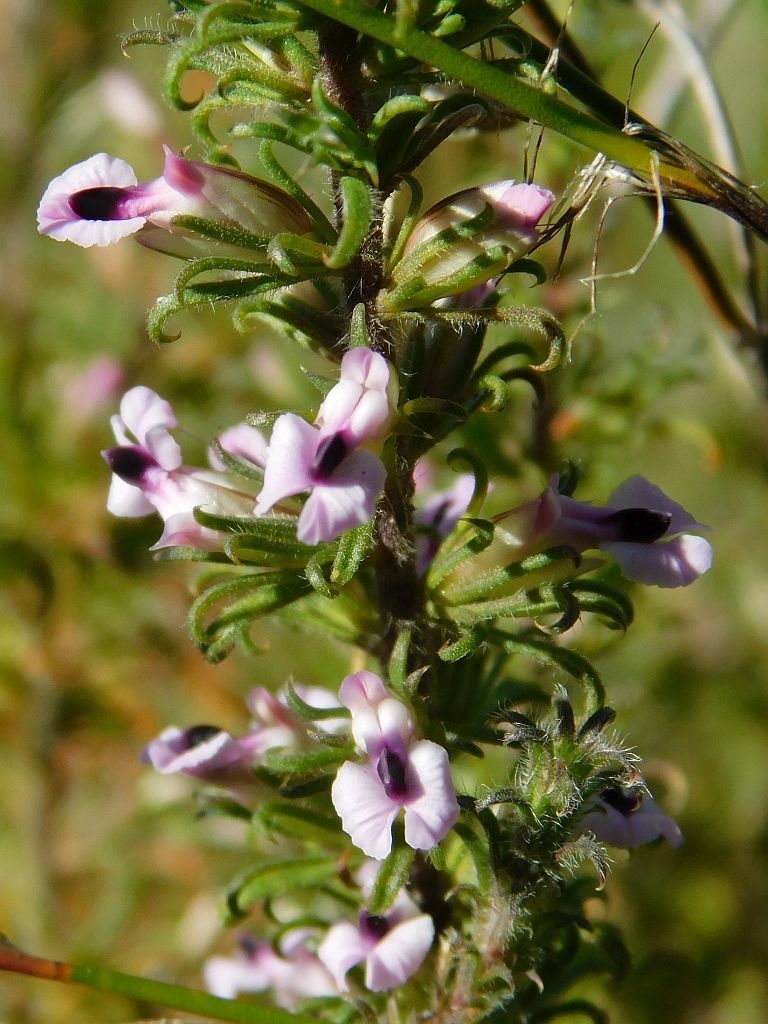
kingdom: Plantae
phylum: Tracheophyta
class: Magnoliopsida
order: Fabales
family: Polygalaceae
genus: Muraltia
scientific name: Muraltia rubeacea
